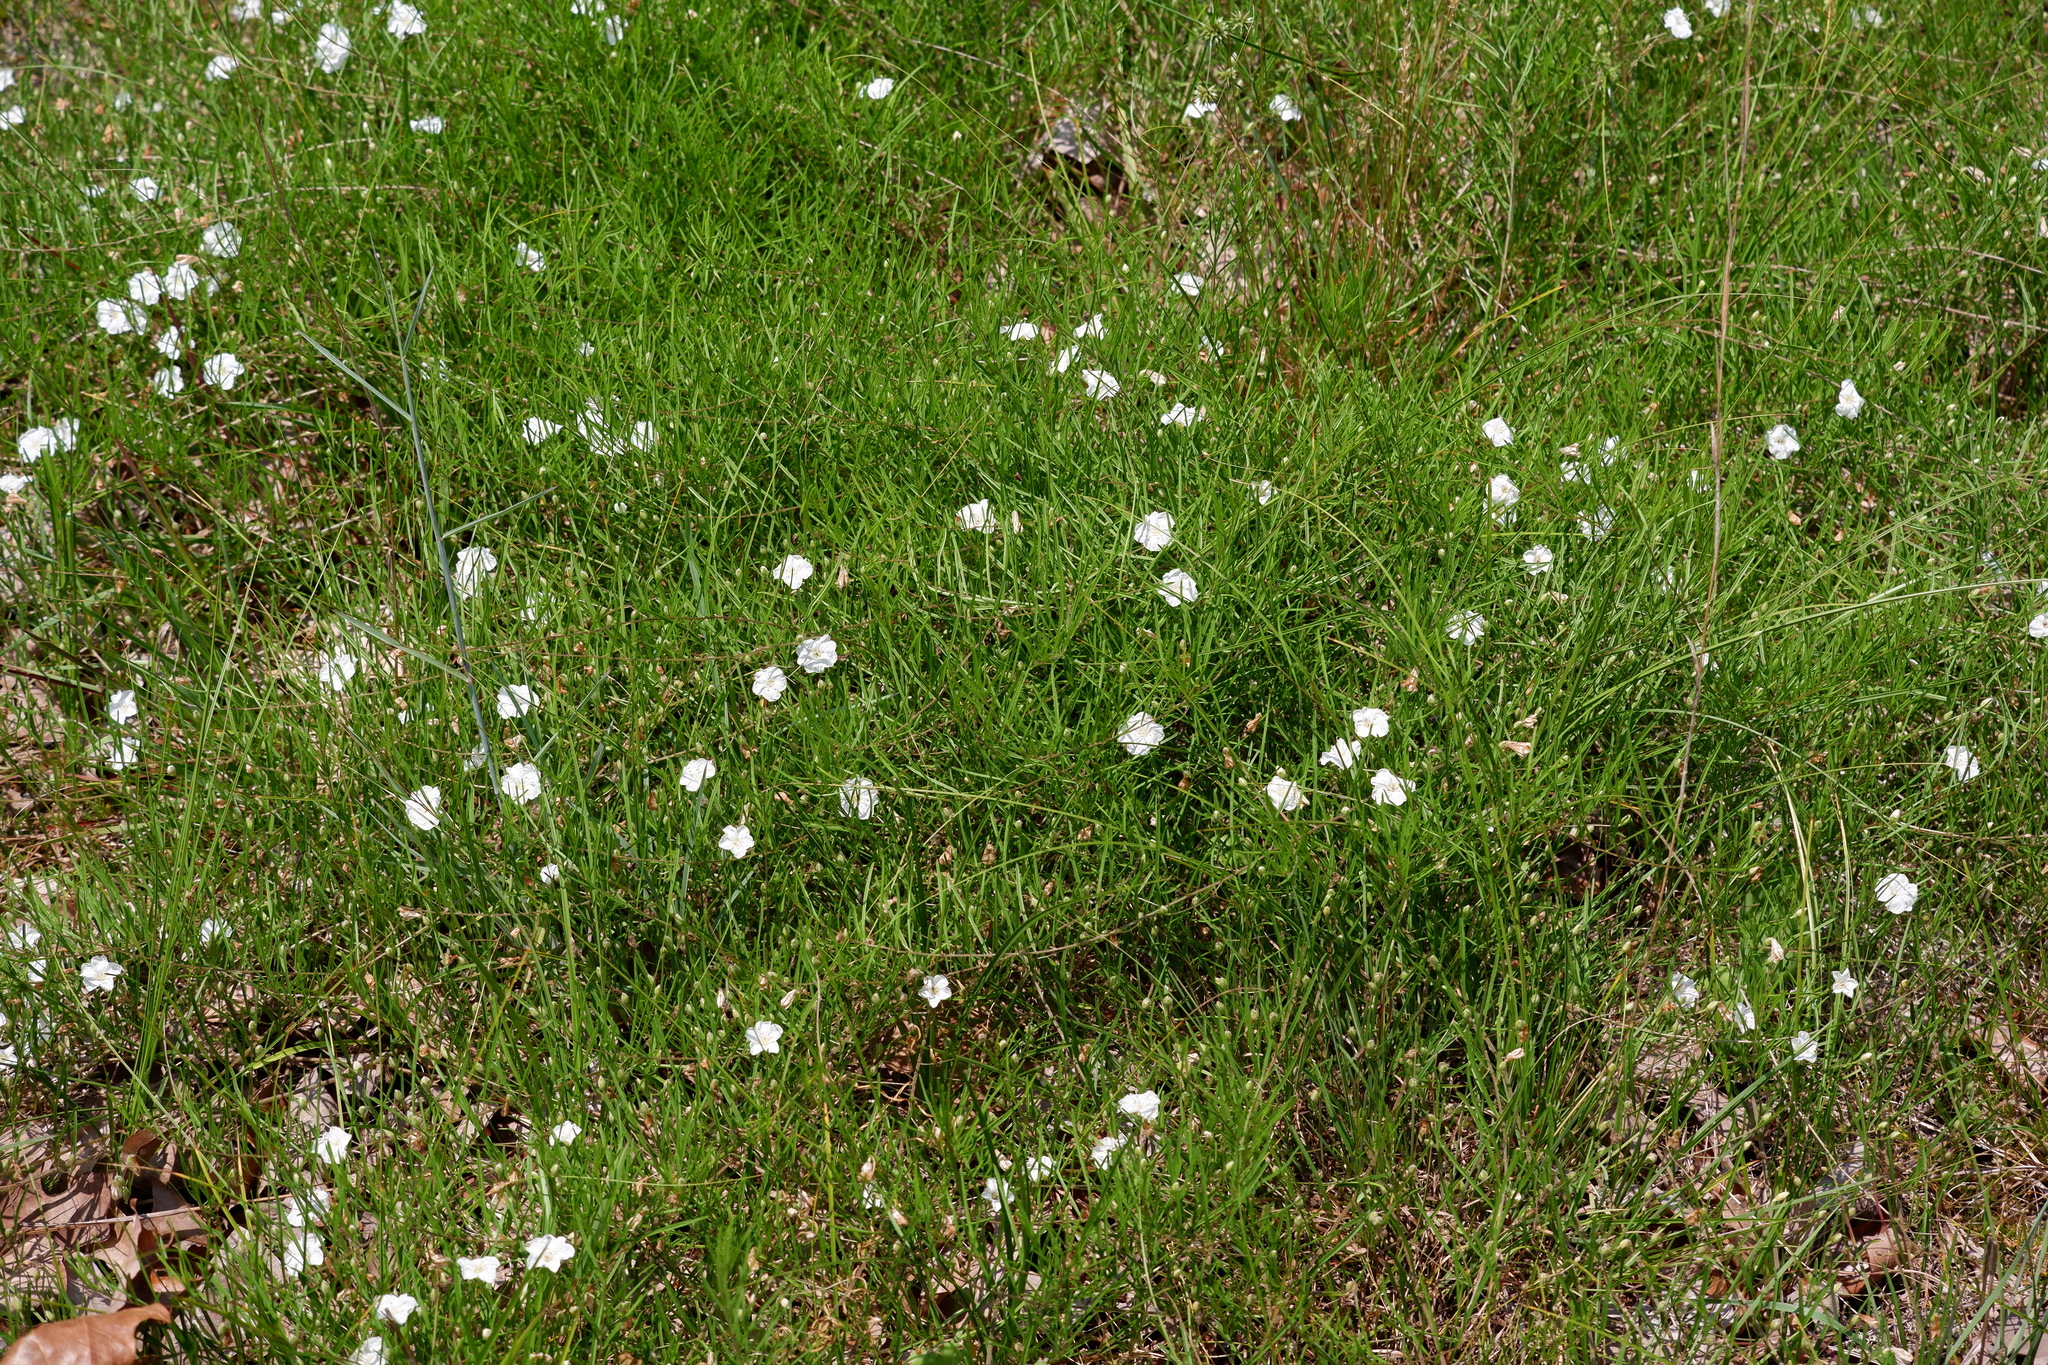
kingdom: Plantae
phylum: Tracheophyta
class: Magnoliopsida
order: Solanales
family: Convolvulaceae
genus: Stylisma
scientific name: Stylisma pickeringii
